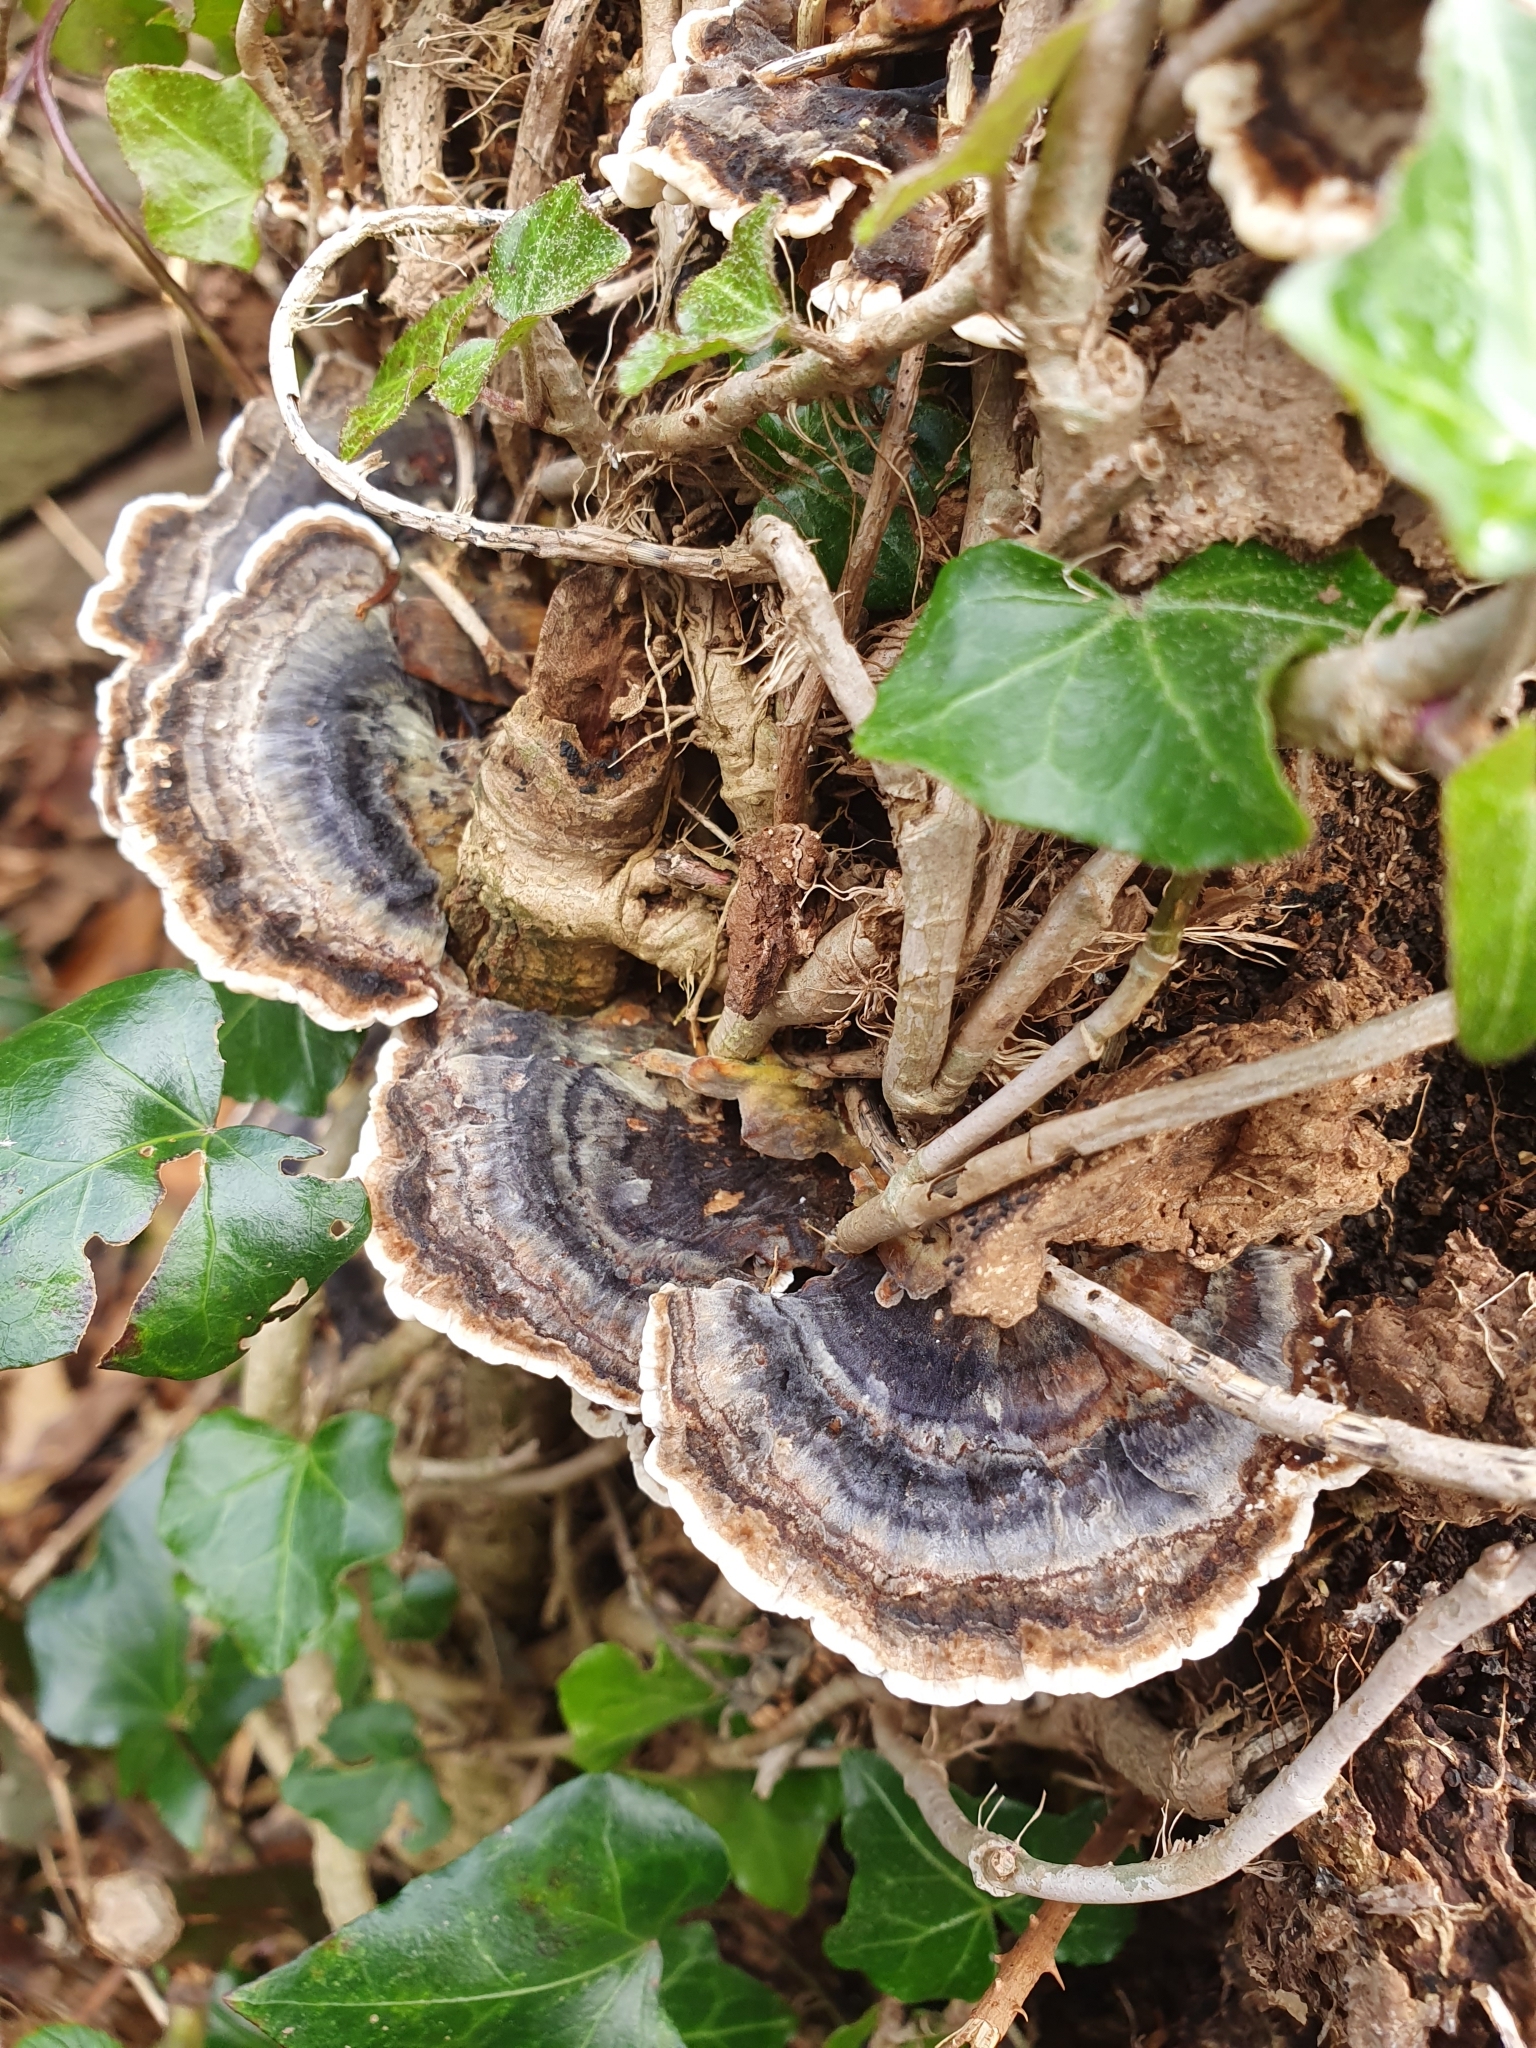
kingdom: Fungi
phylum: Basidiomycota
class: Agaricomycetes
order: Polyporales
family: Polyporaceae
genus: Trametes
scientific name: Trametes versicolor
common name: Turkeytail
